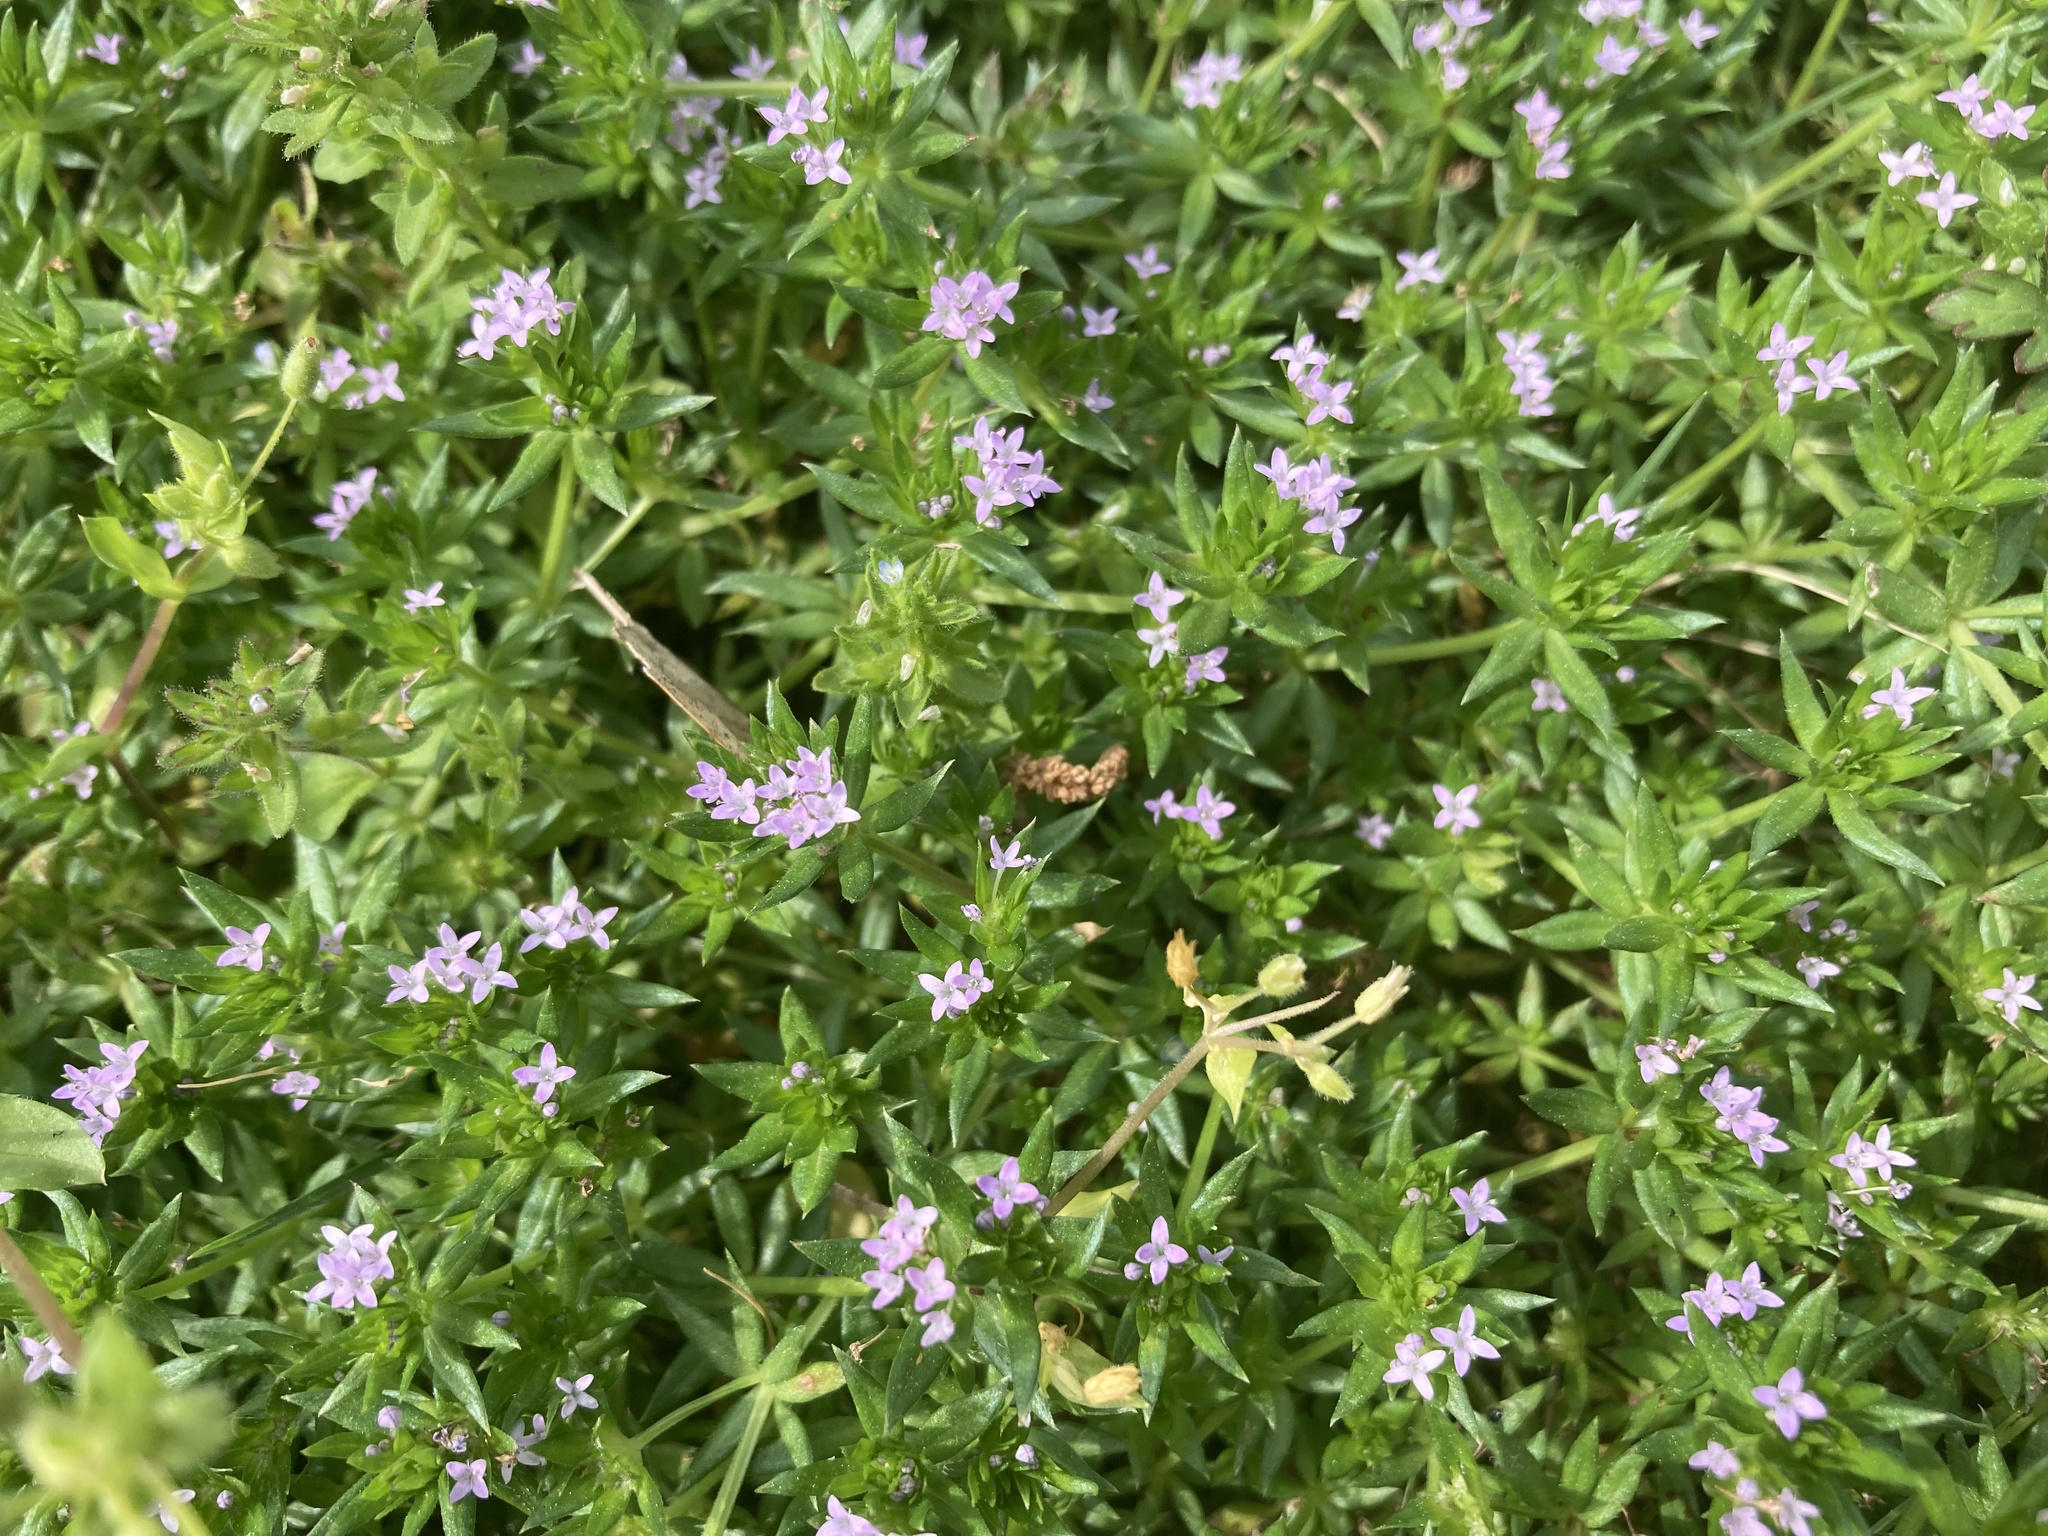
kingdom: Plantae
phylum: Tracheophyta
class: Magnoliopsida
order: Gentianales
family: Rubiaceae
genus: Sherardia
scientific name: Sherardia arvensis
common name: Field madder
